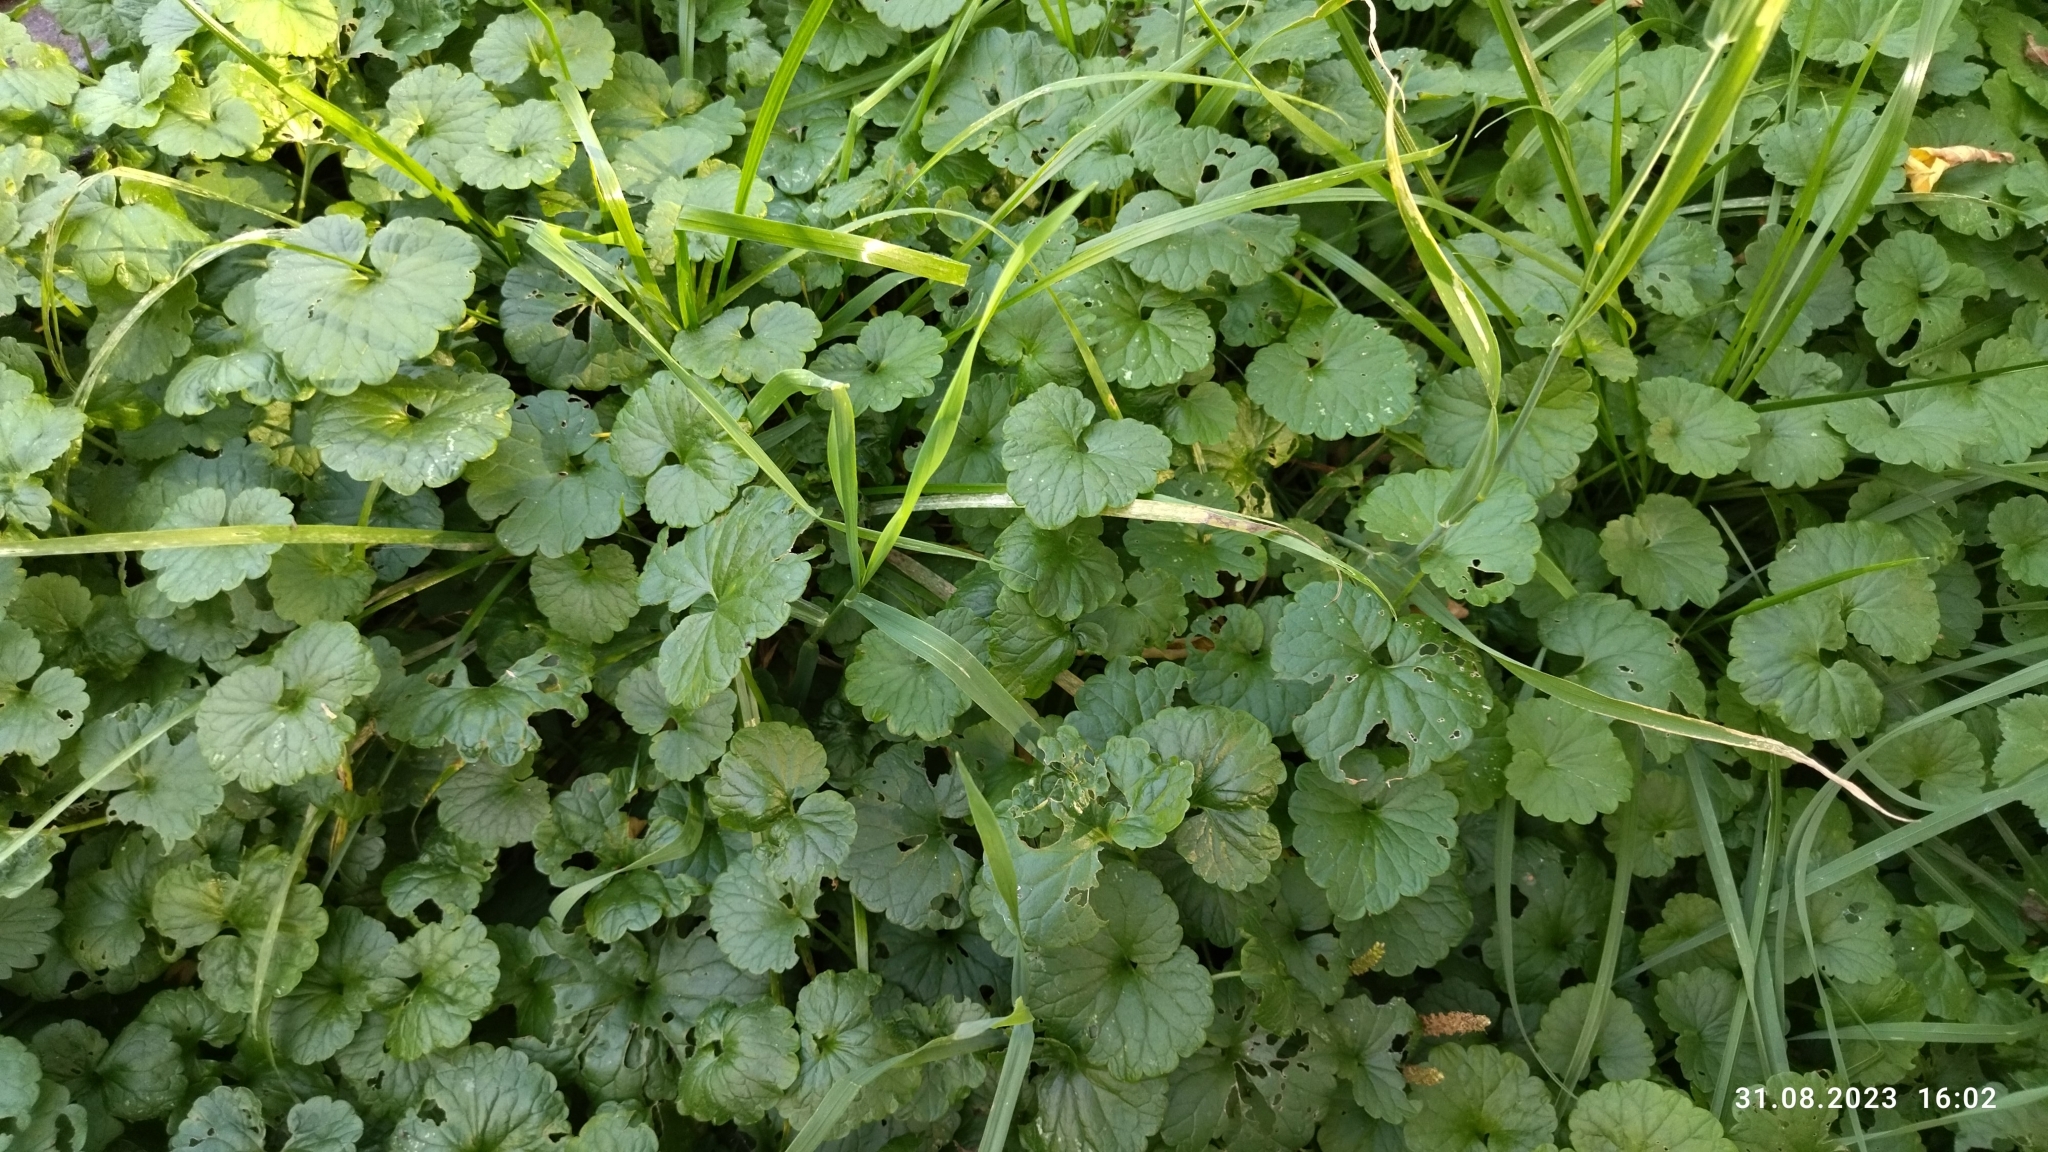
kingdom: Plantae
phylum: Tracheophyta
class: Magnoliopsida
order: Lamiales
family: Lamiaceae
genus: Glechoma
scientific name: Glechoma hederacea
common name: Ground ivy
